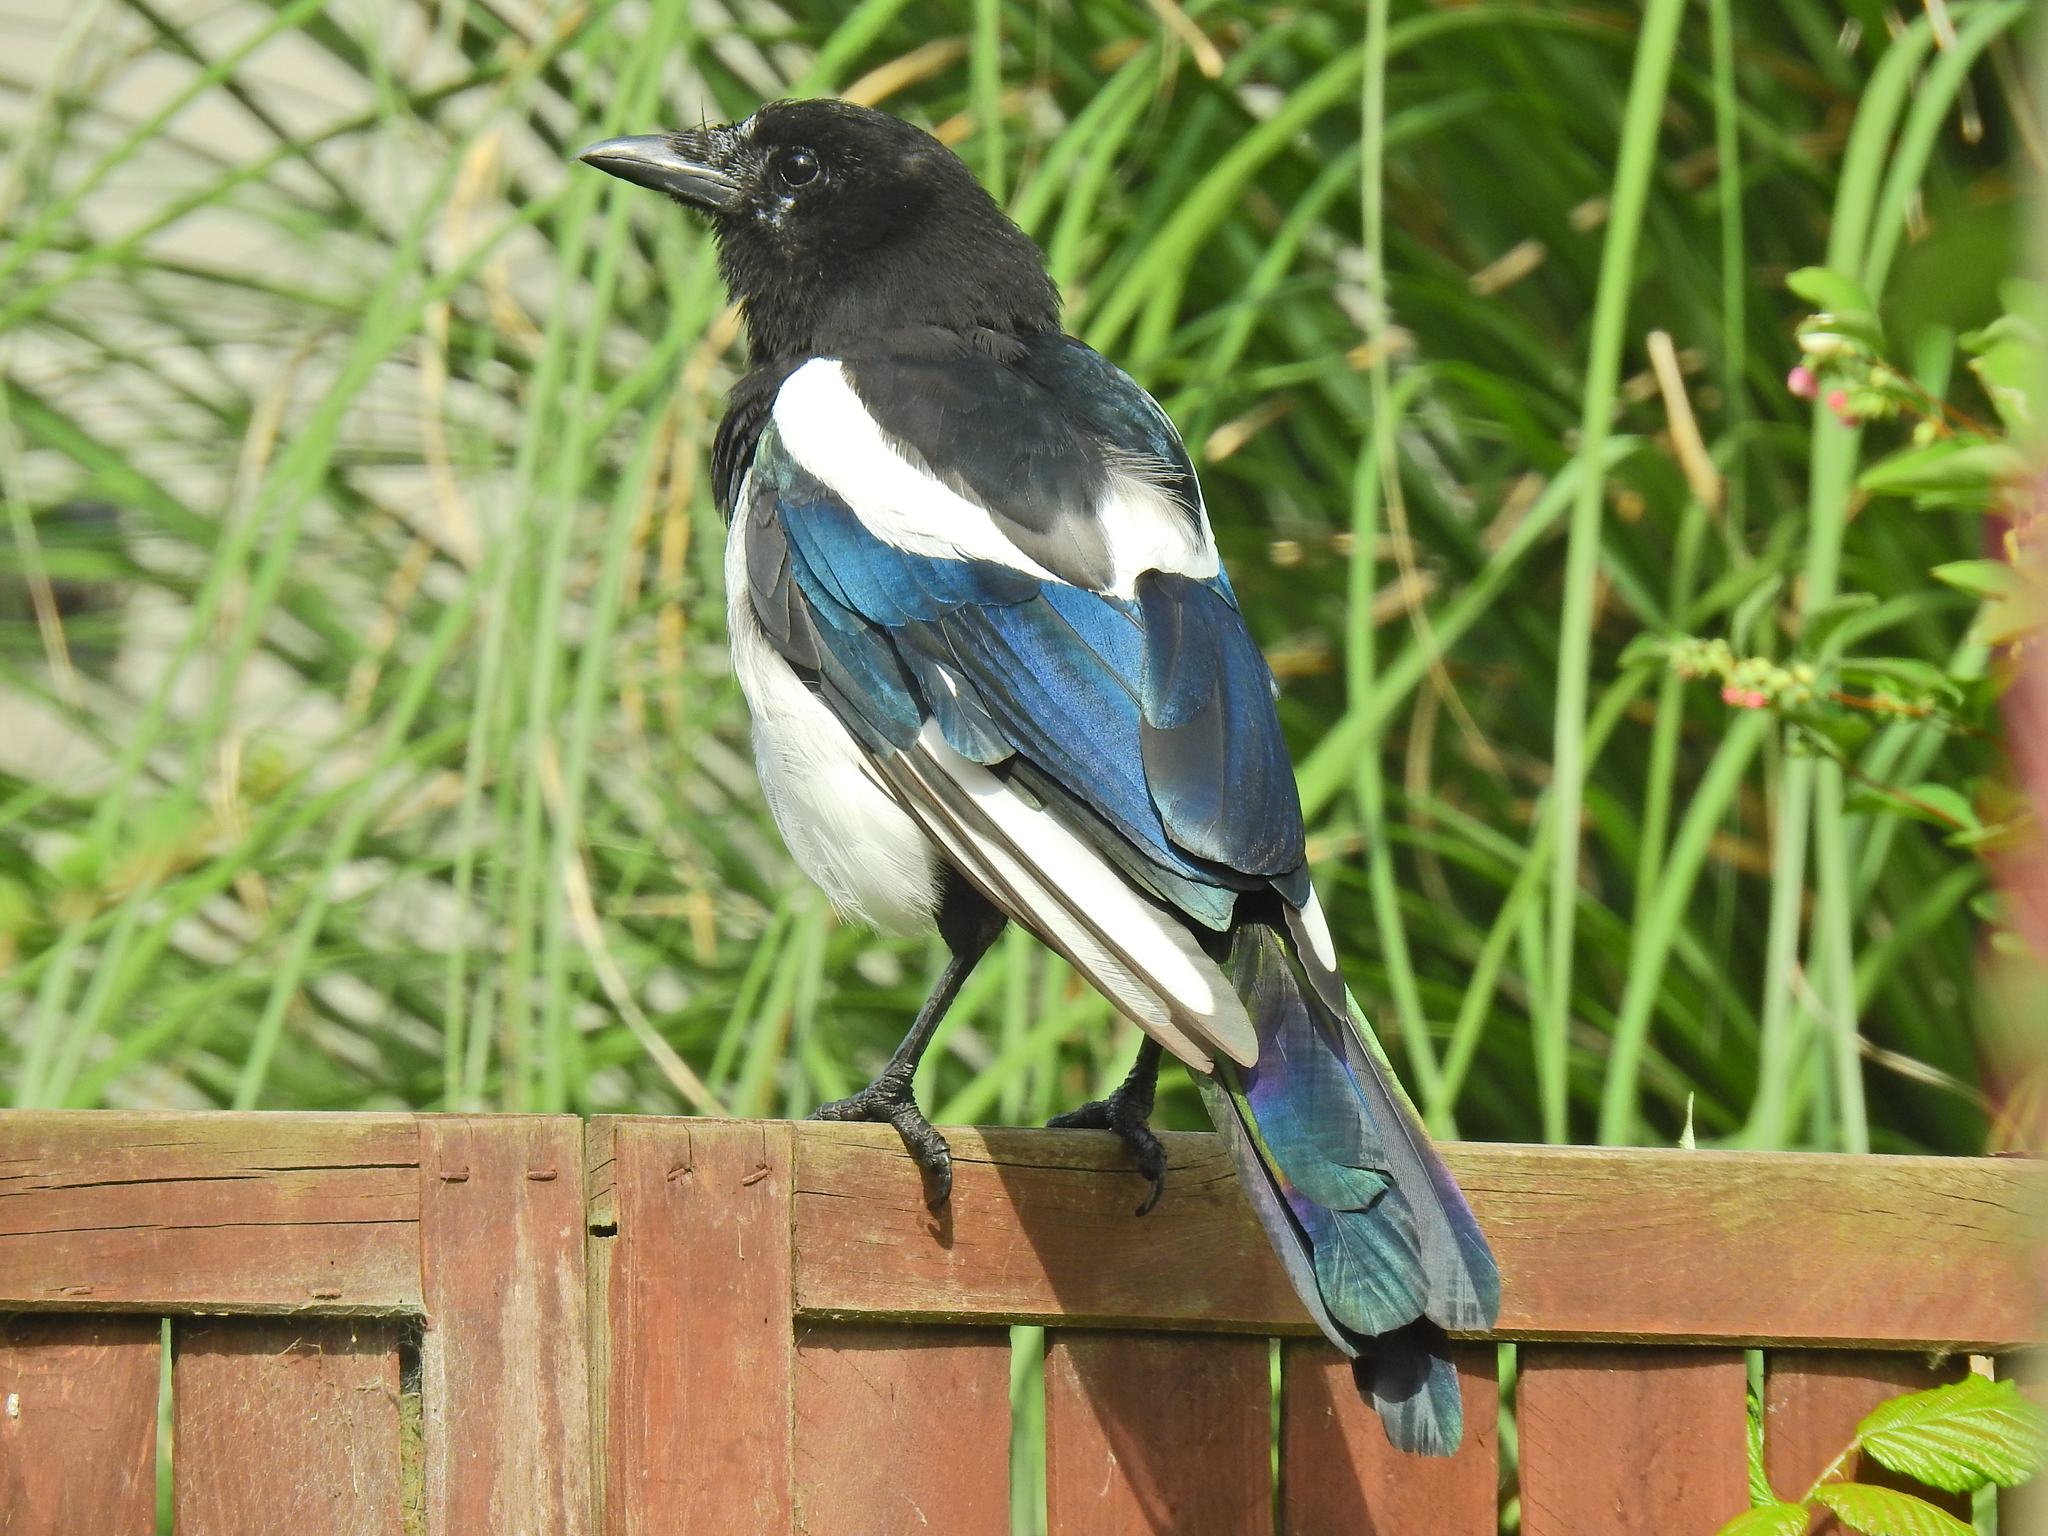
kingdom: Animalia
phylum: Chordata
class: Aves
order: Passeriformes
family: Corvidae
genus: Pica
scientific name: Pica pica
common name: Eurasian magpie
